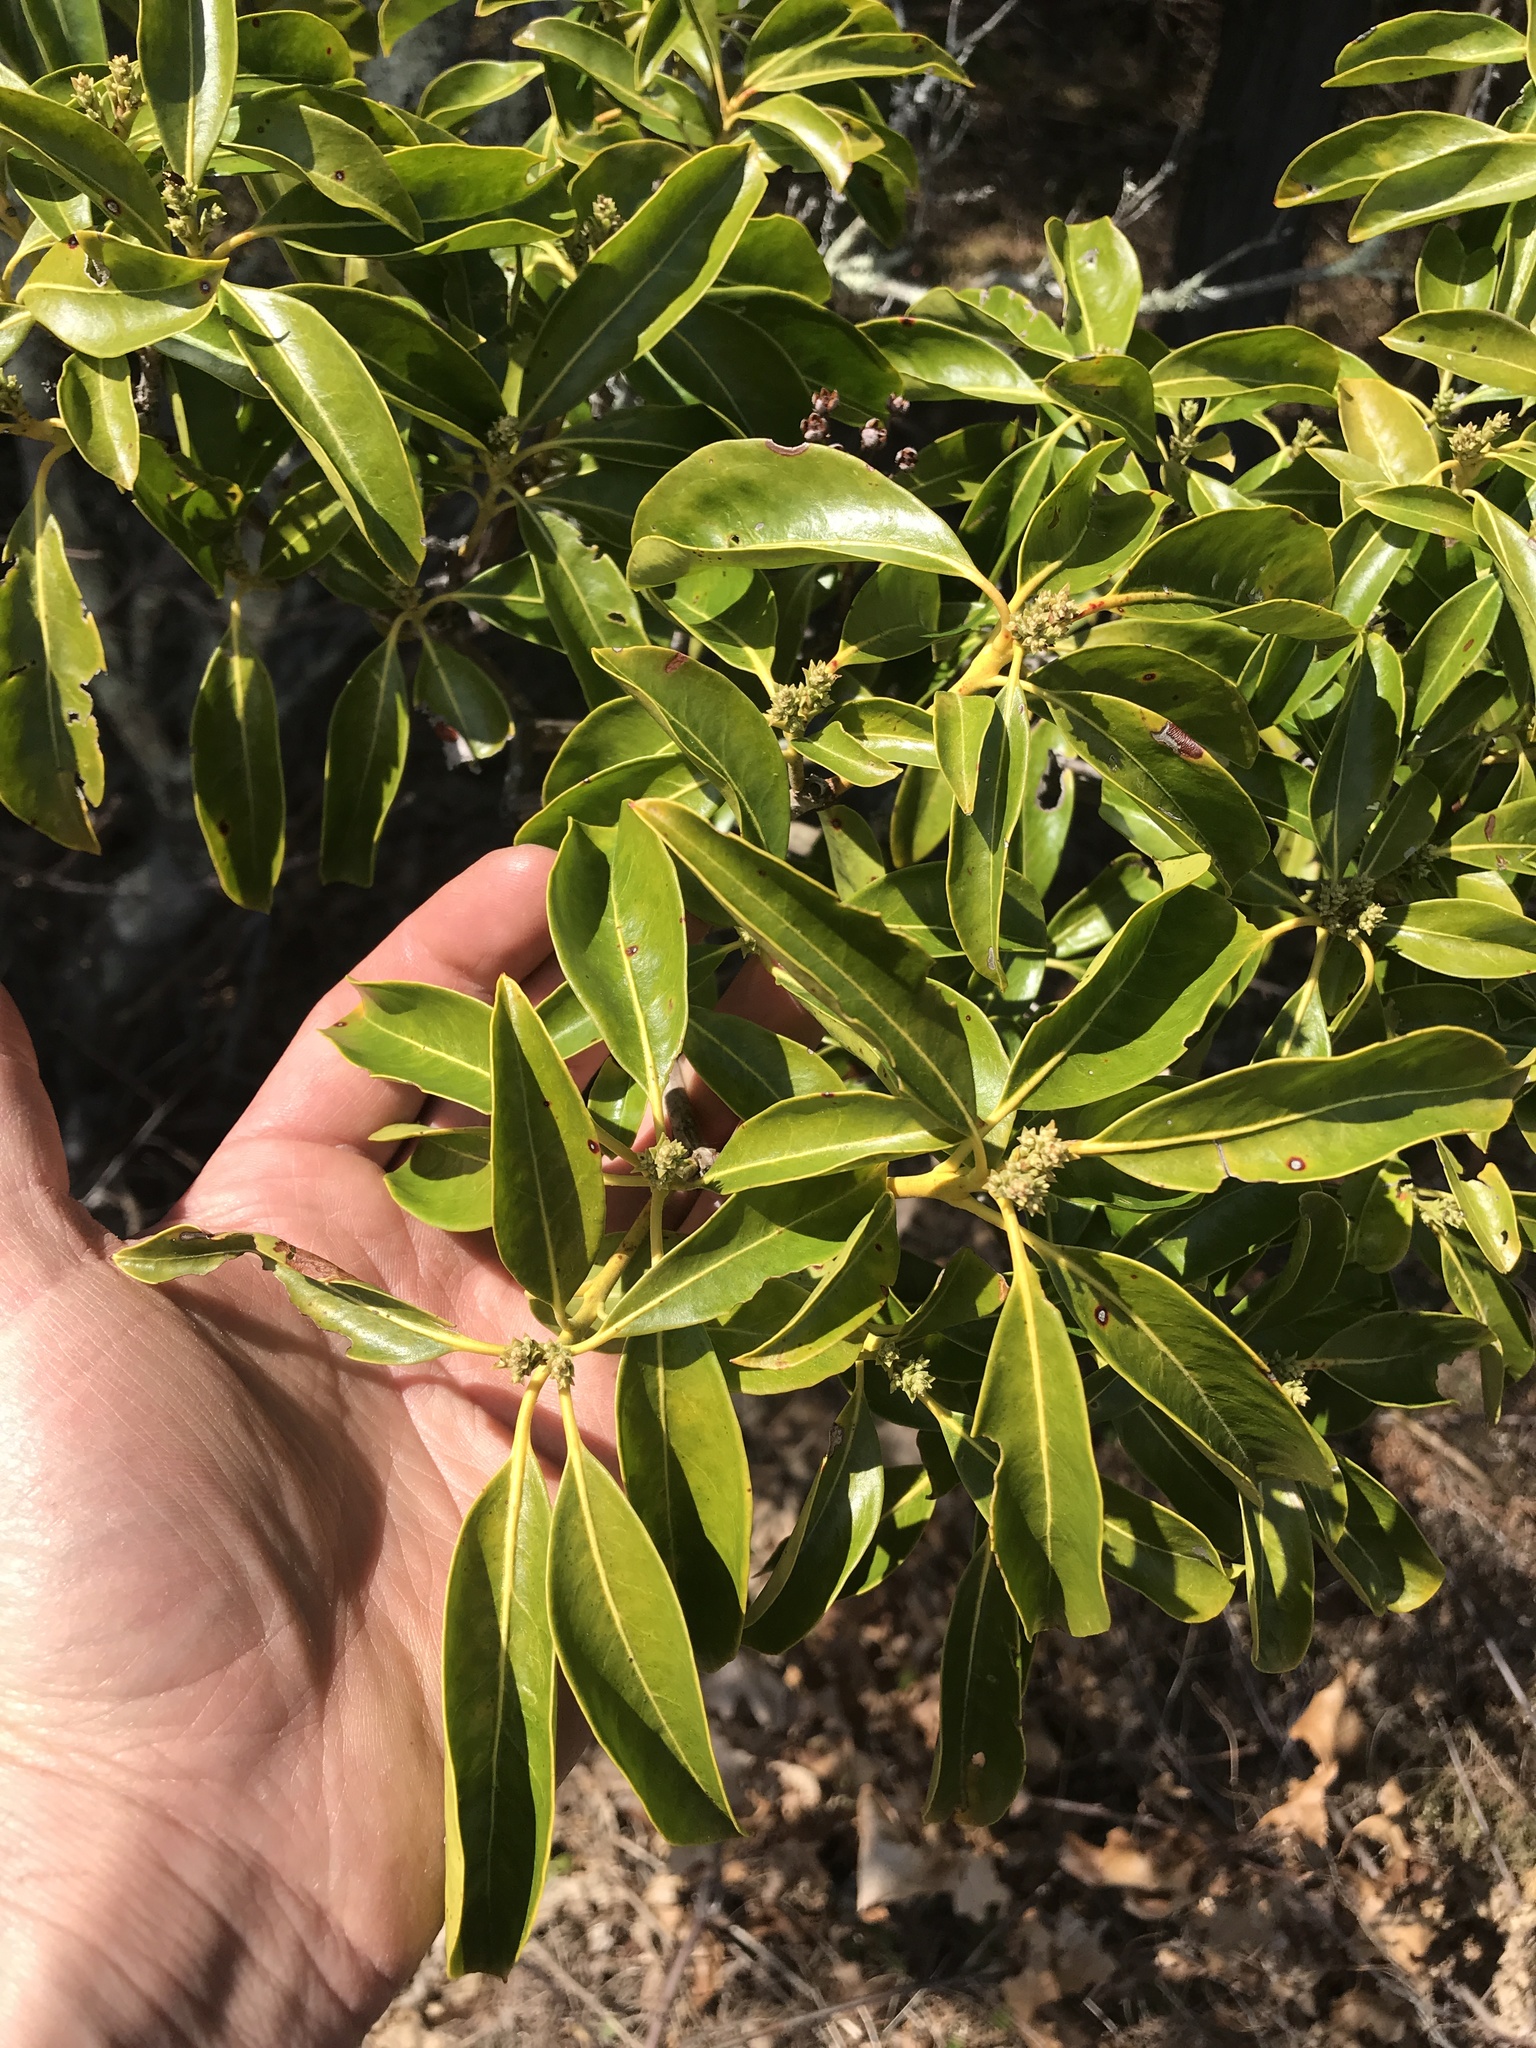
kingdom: Plantae
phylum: Tracheophyta
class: Magnoliopsida
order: Ericales
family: Ericaceae
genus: Kalmia
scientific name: Kalmia latifolia
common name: Mountain-laurel
